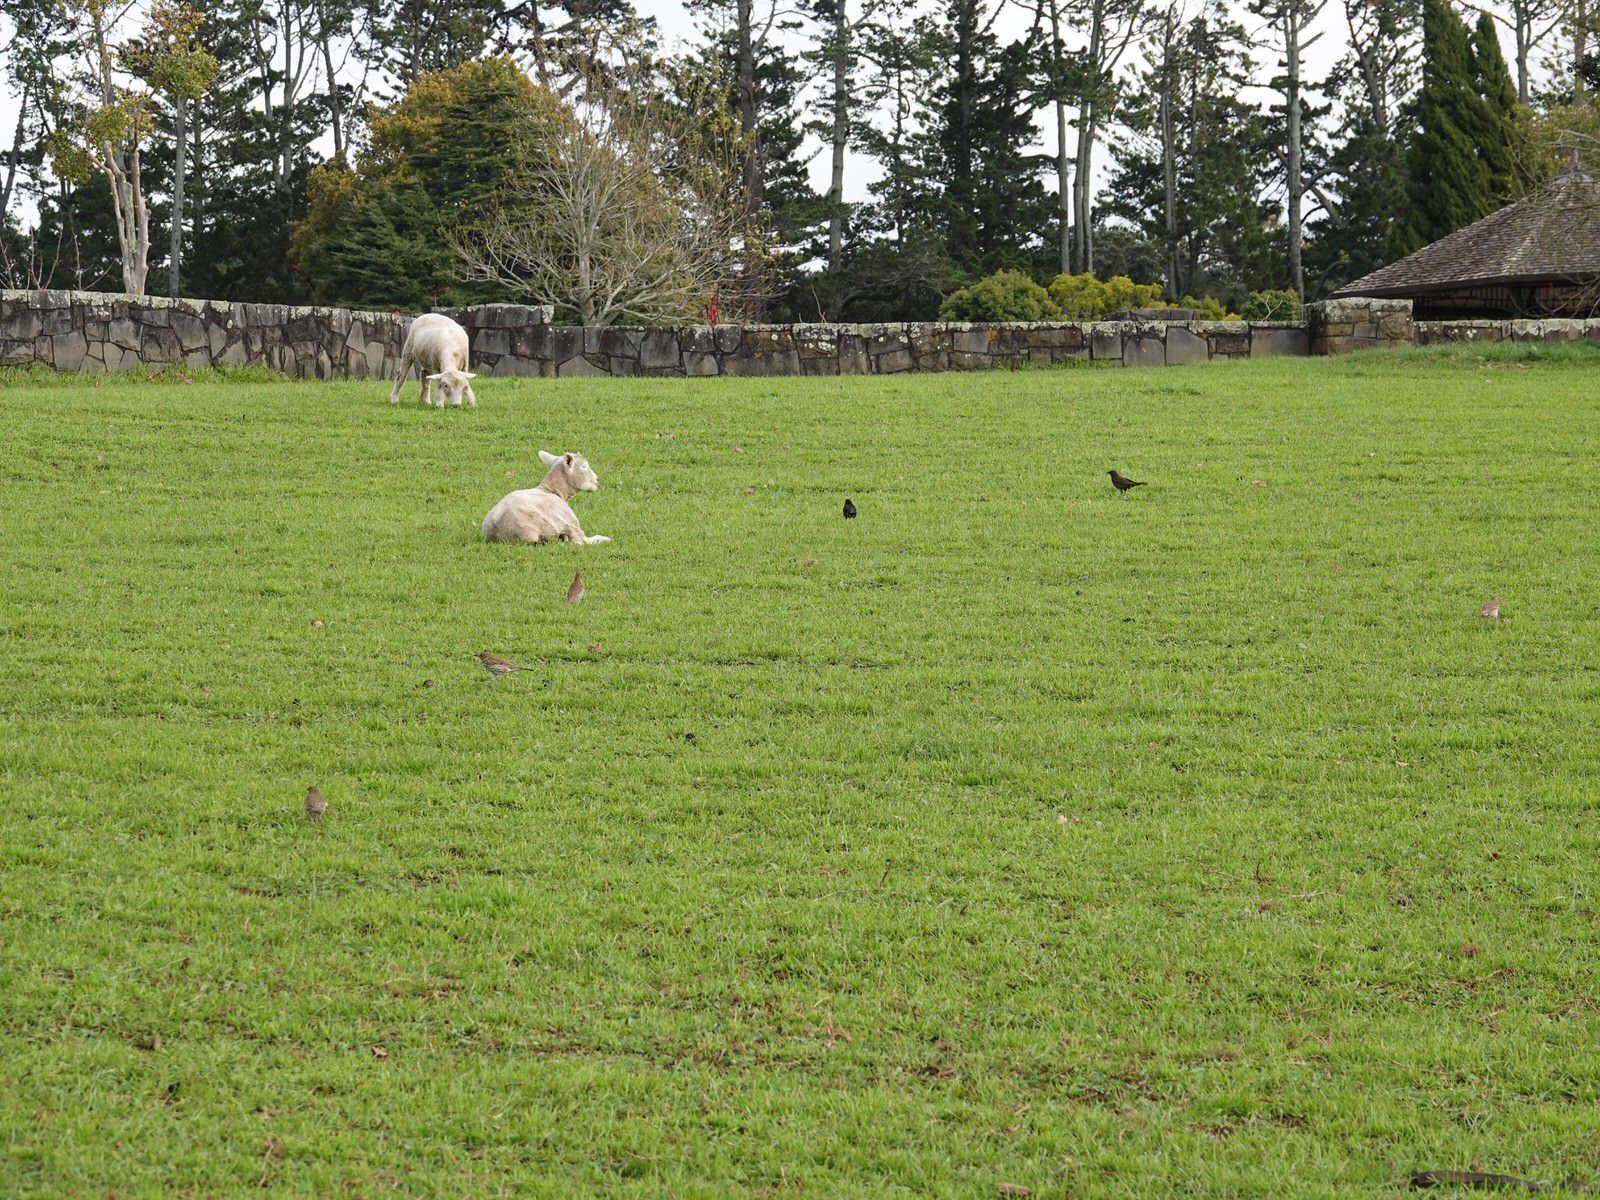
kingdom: Animalia
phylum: Chordata
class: Aves
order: Passeriformes
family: Turdidae
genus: Turdus
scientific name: Turdus philomelos
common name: Song thrush
